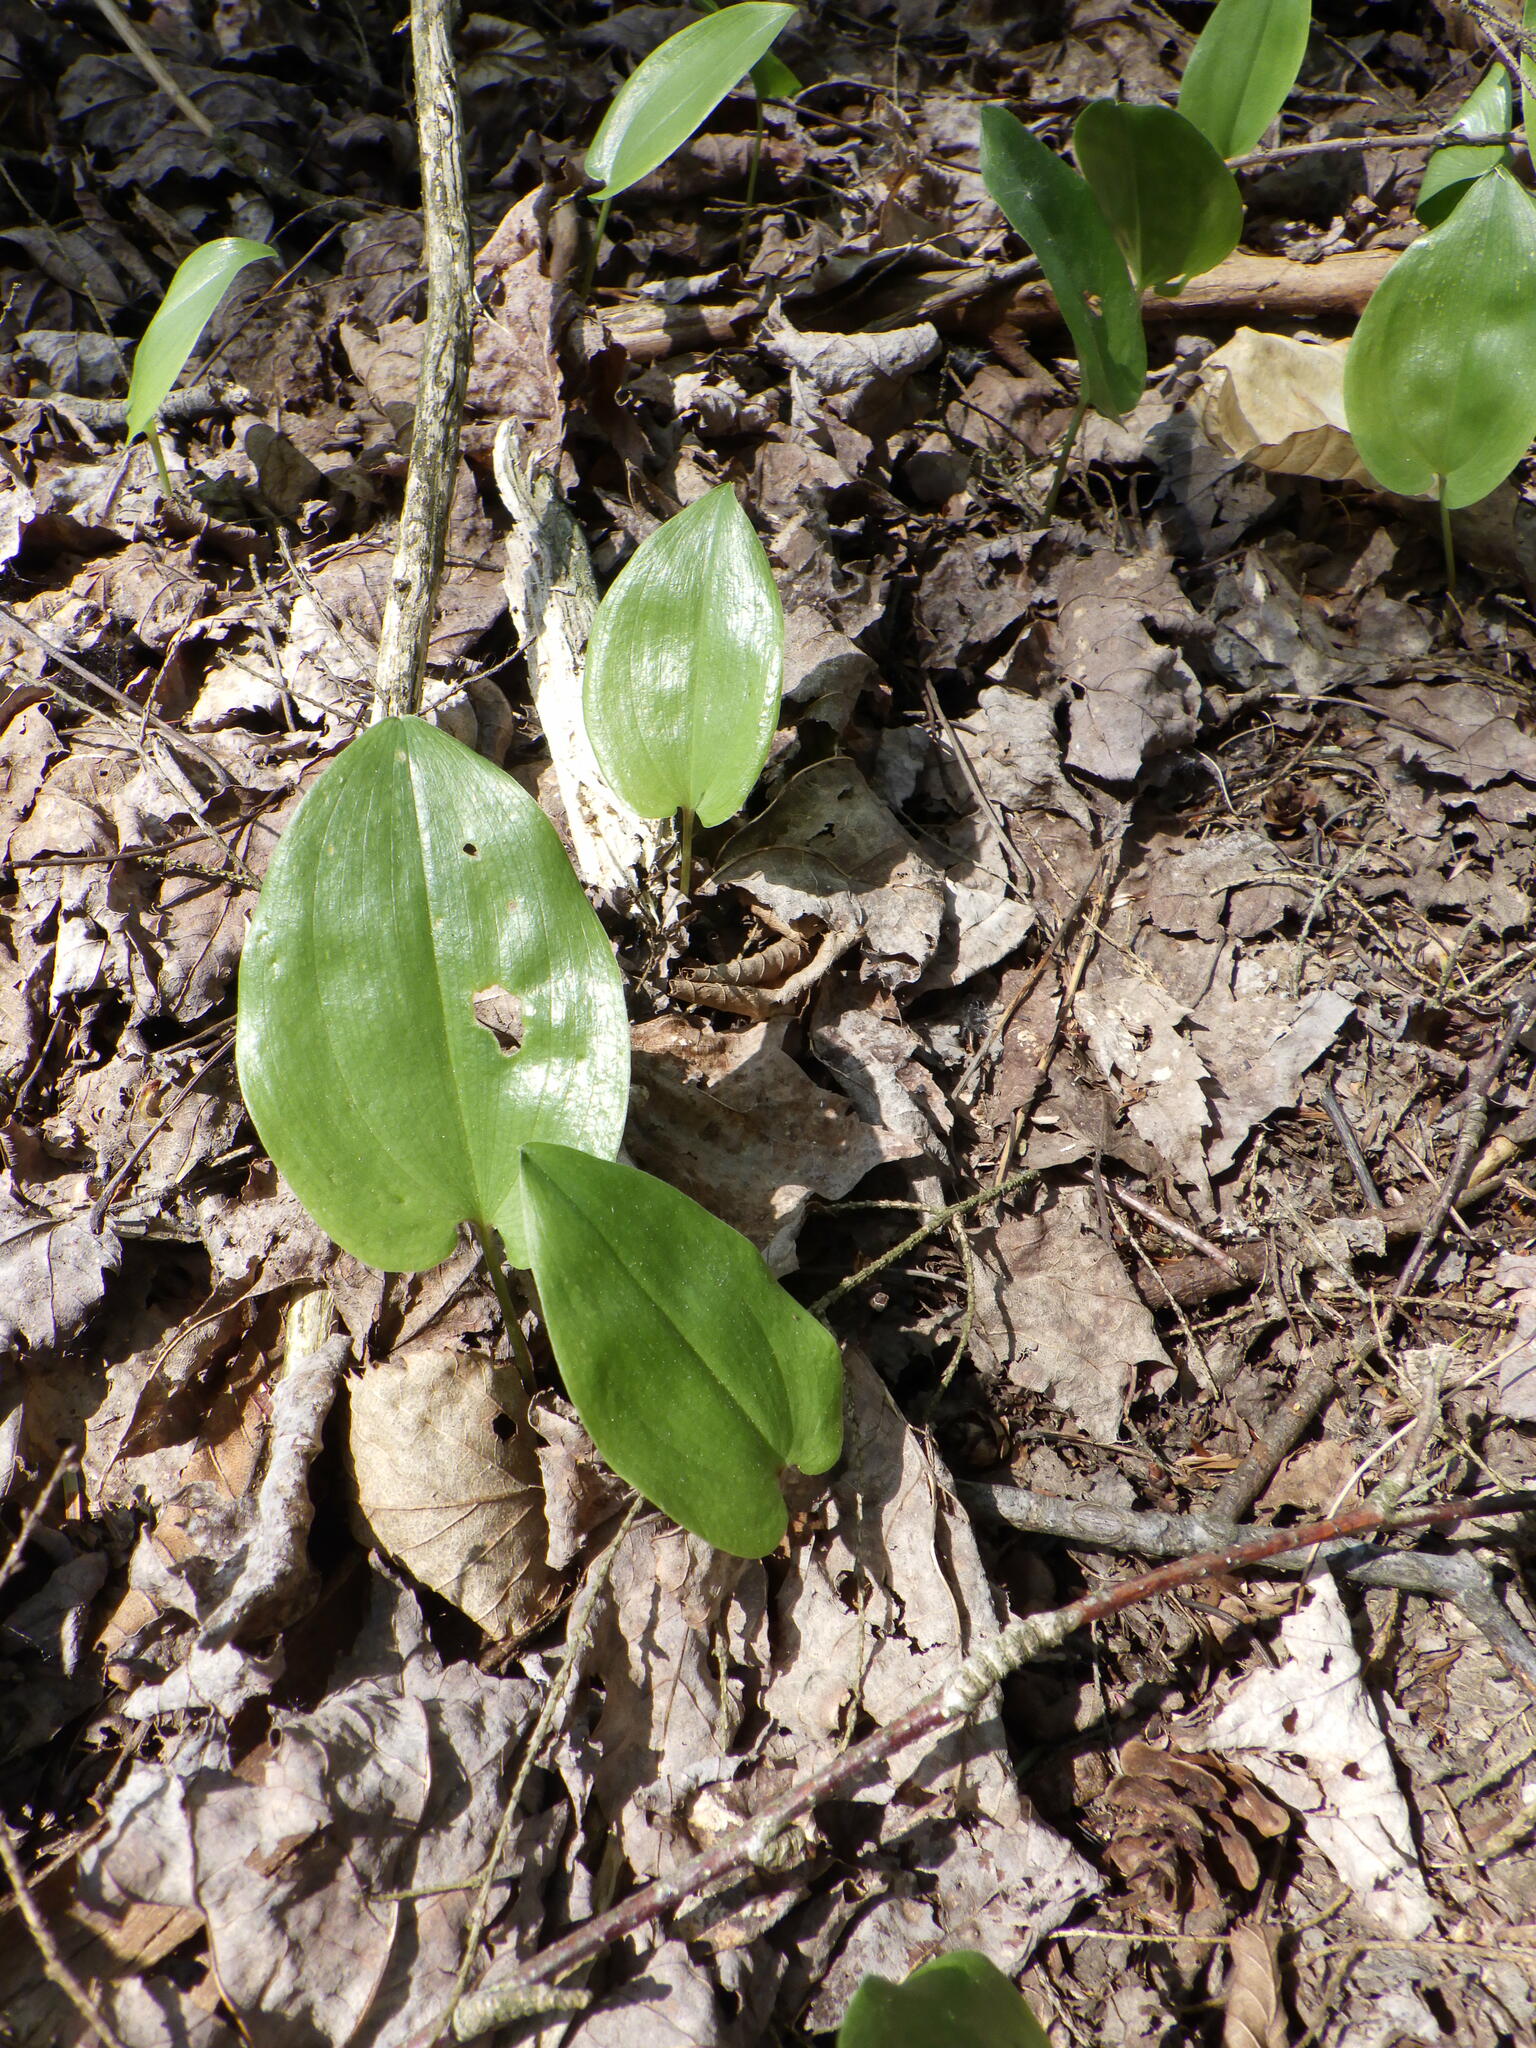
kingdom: Plantae
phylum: Tracheophyta
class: Liliopsida
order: Asparagales
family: Asparagaceae
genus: Maianthemum
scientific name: Maianthemum canadense
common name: False lily-of-the-valley
